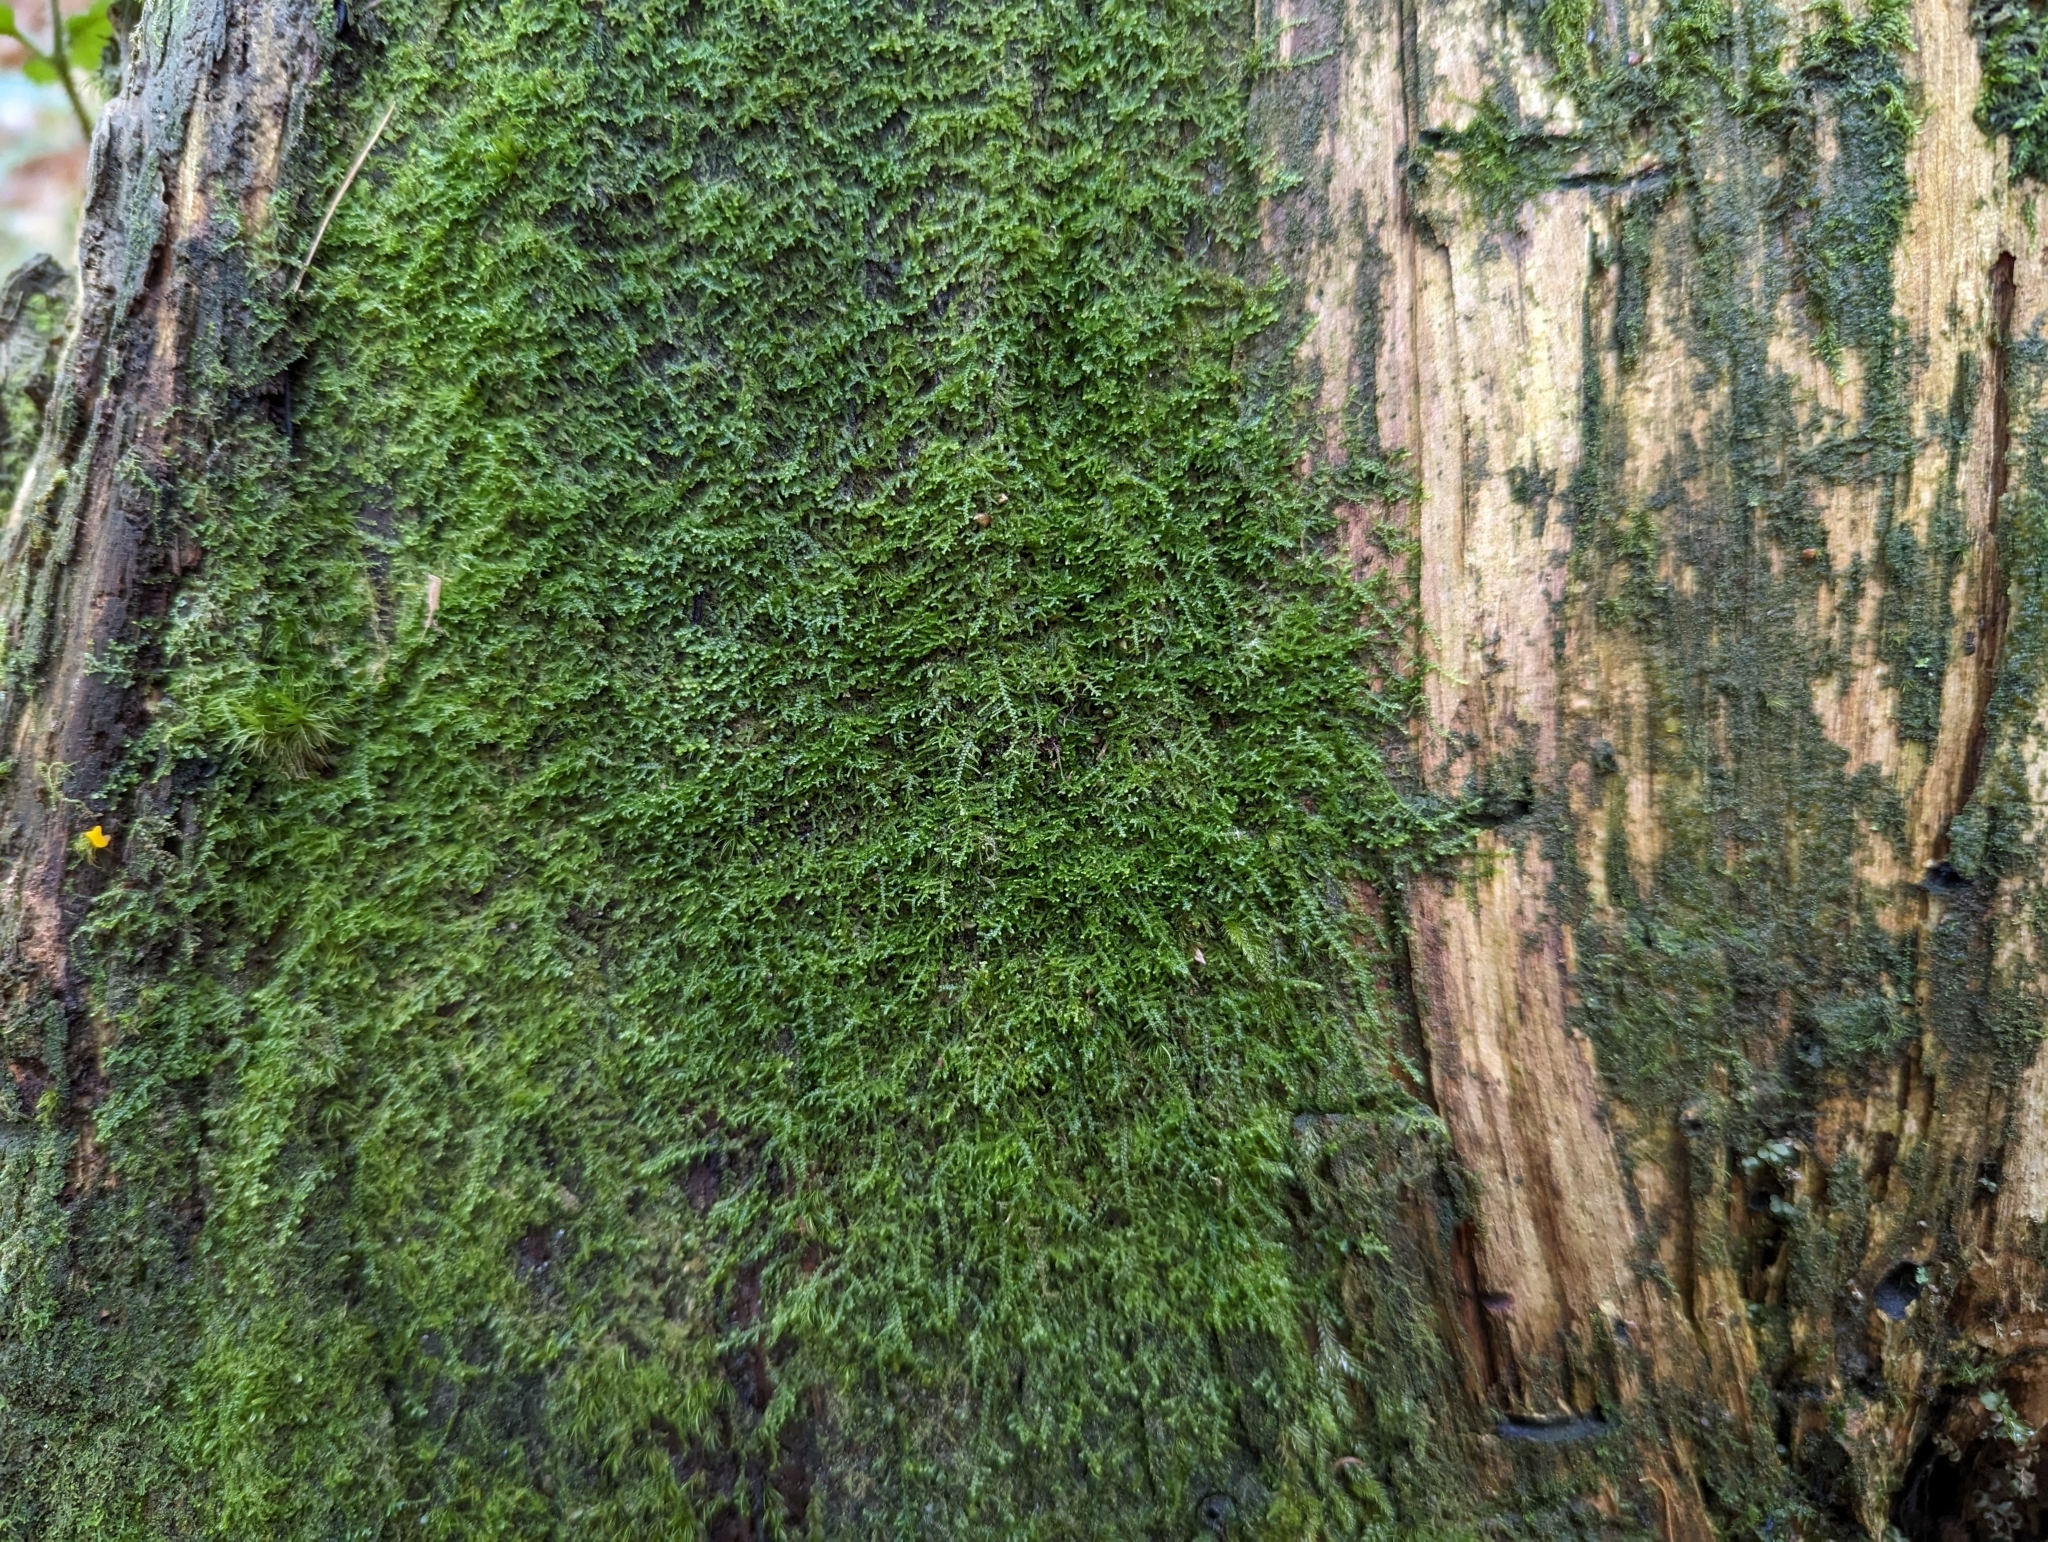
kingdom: Plantae
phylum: Marchantiophyta
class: Jungermanniopsida
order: Jungermanniales
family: Lepidoziaceae
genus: Lepidozia
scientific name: Lepidozia reptans
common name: Creeping fingerwort
